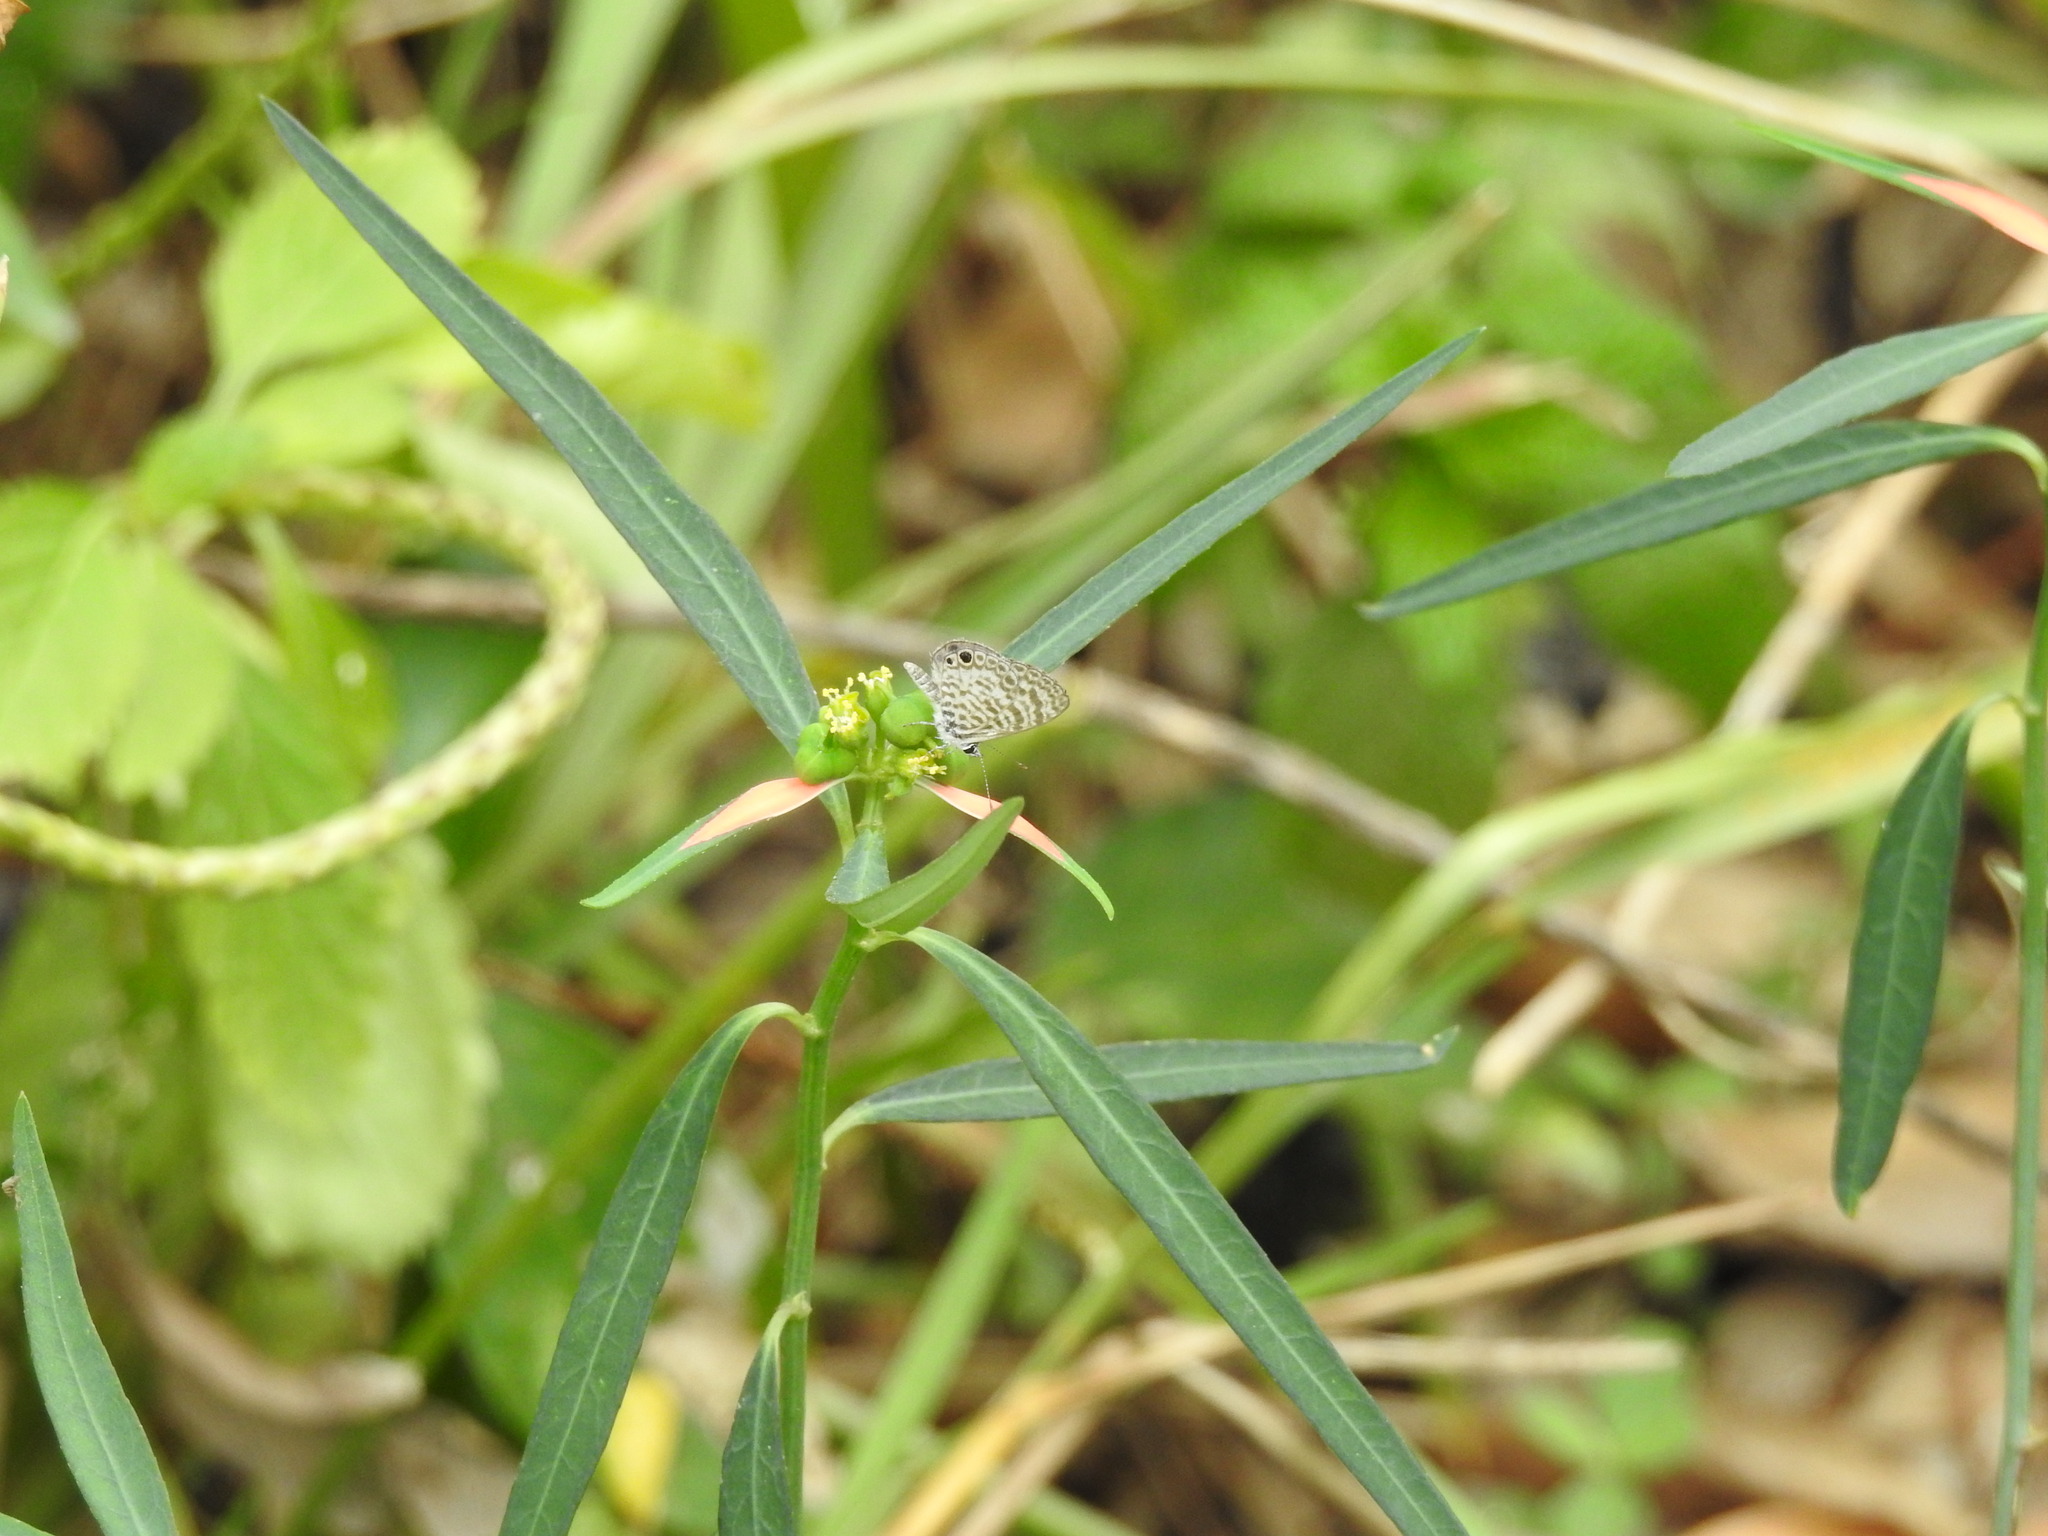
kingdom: Animalia
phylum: Arthropoda
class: Insecta
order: Lepidoptera
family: Lycaenidae
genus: Leptotes
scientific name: Leptotes cassius
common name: Cassius blue
